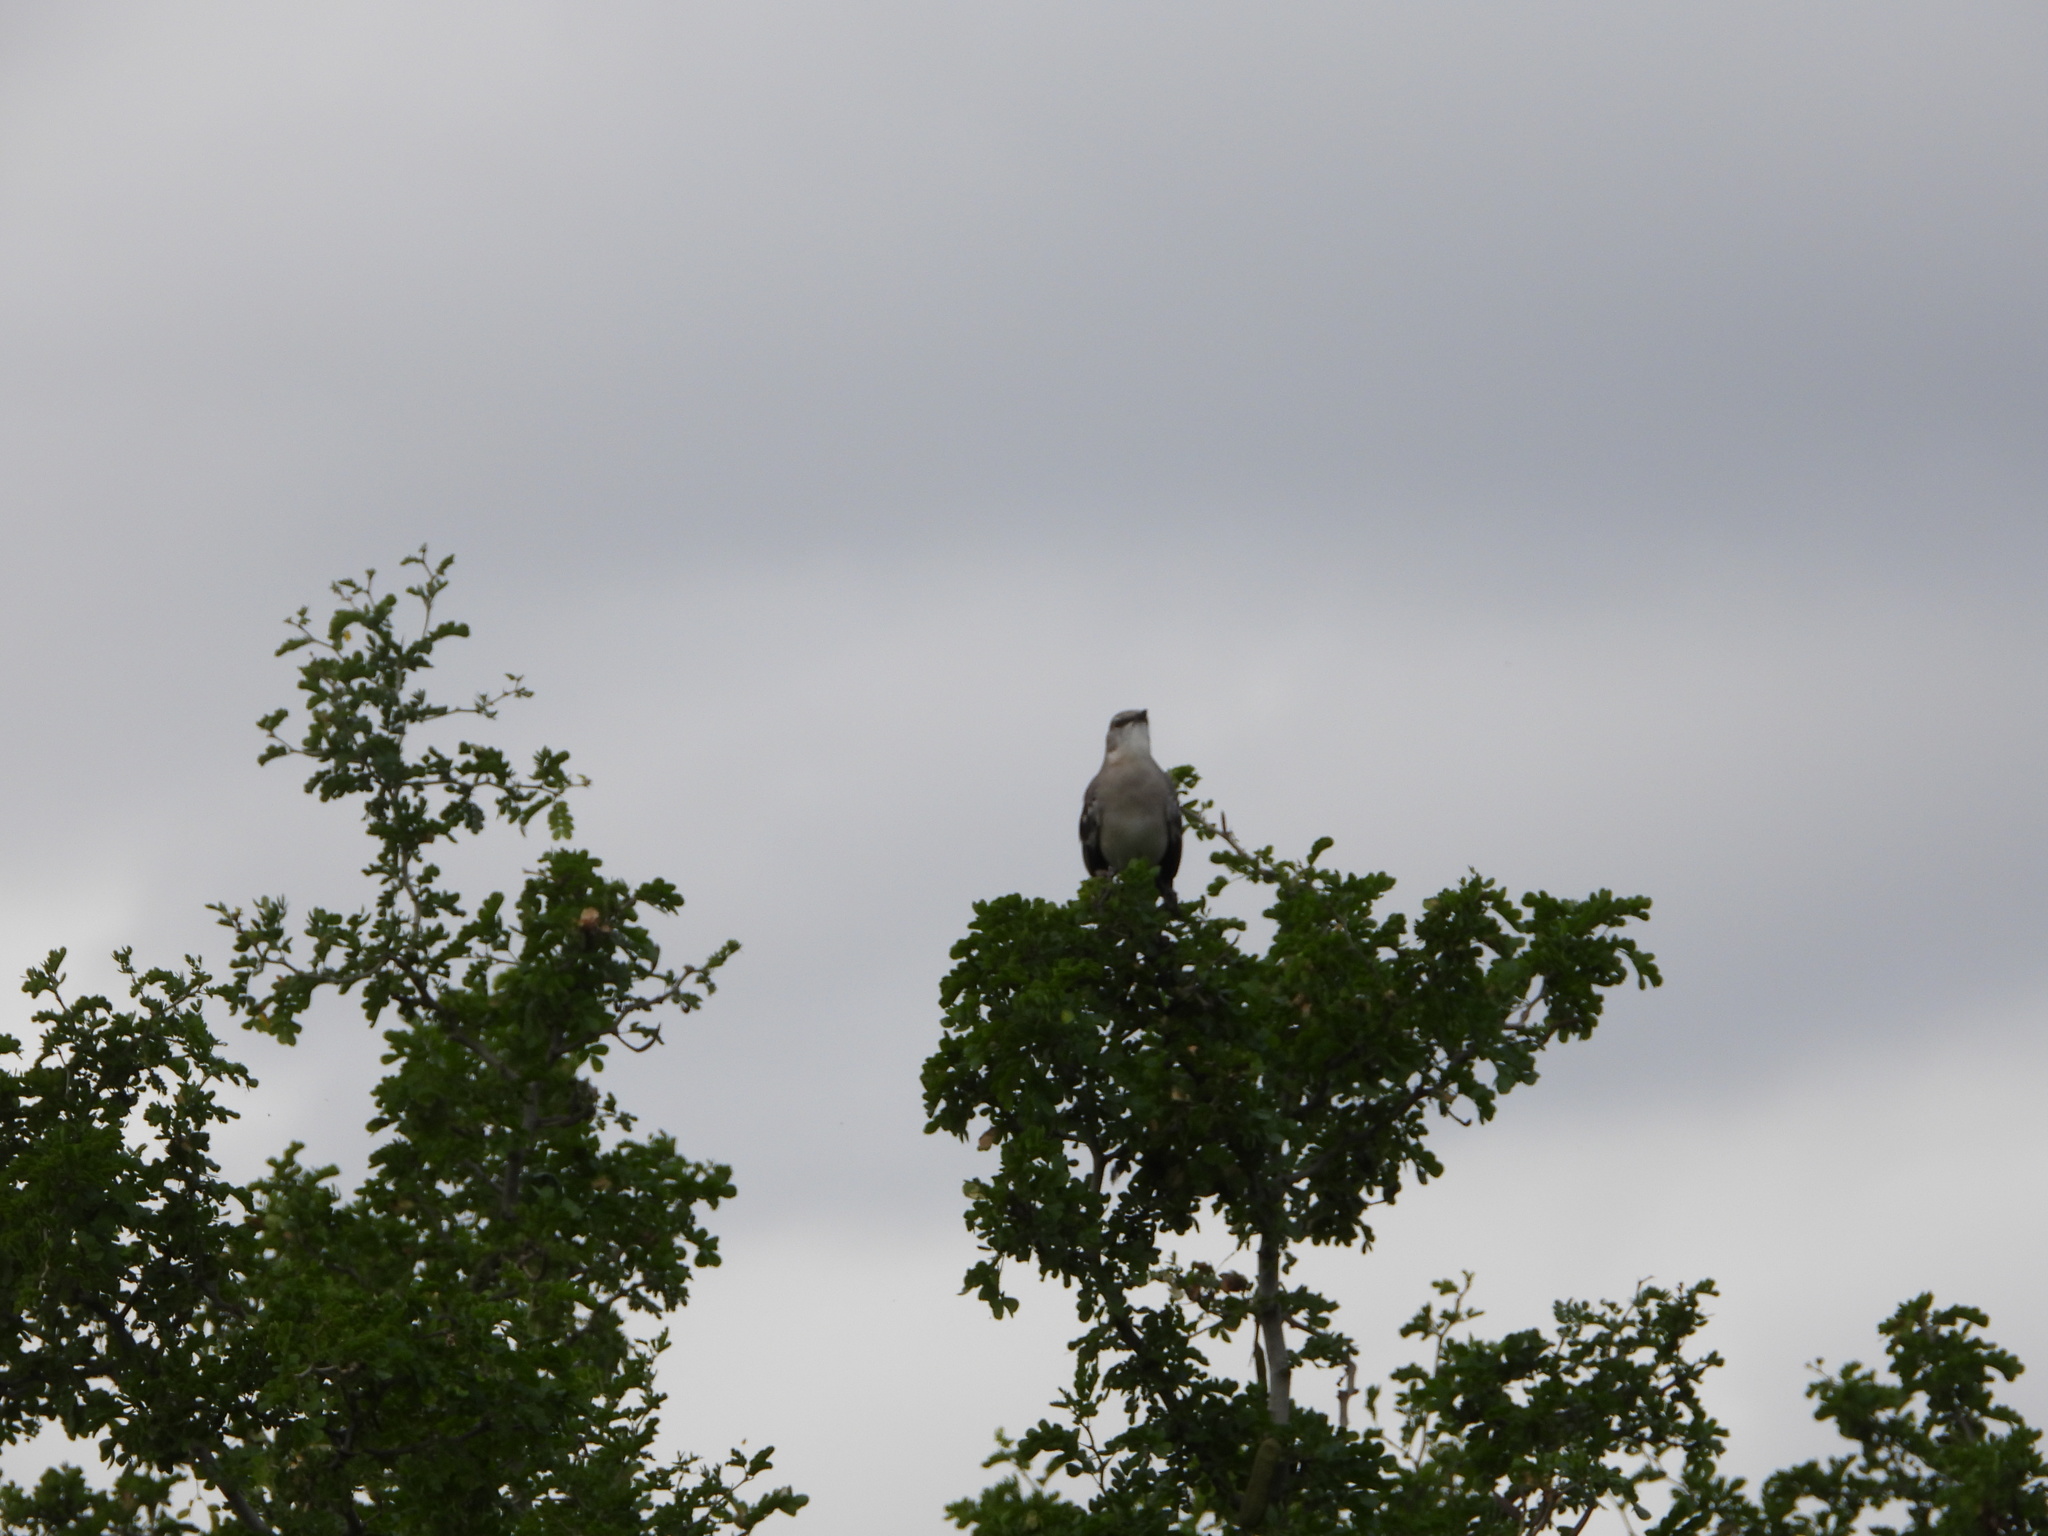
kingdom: Animalia
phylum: Chordata
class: Aves
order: Passeriformes
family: Mimidae
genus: Mimus
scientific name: Mimus polyglottos
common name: Northern mockingbird
